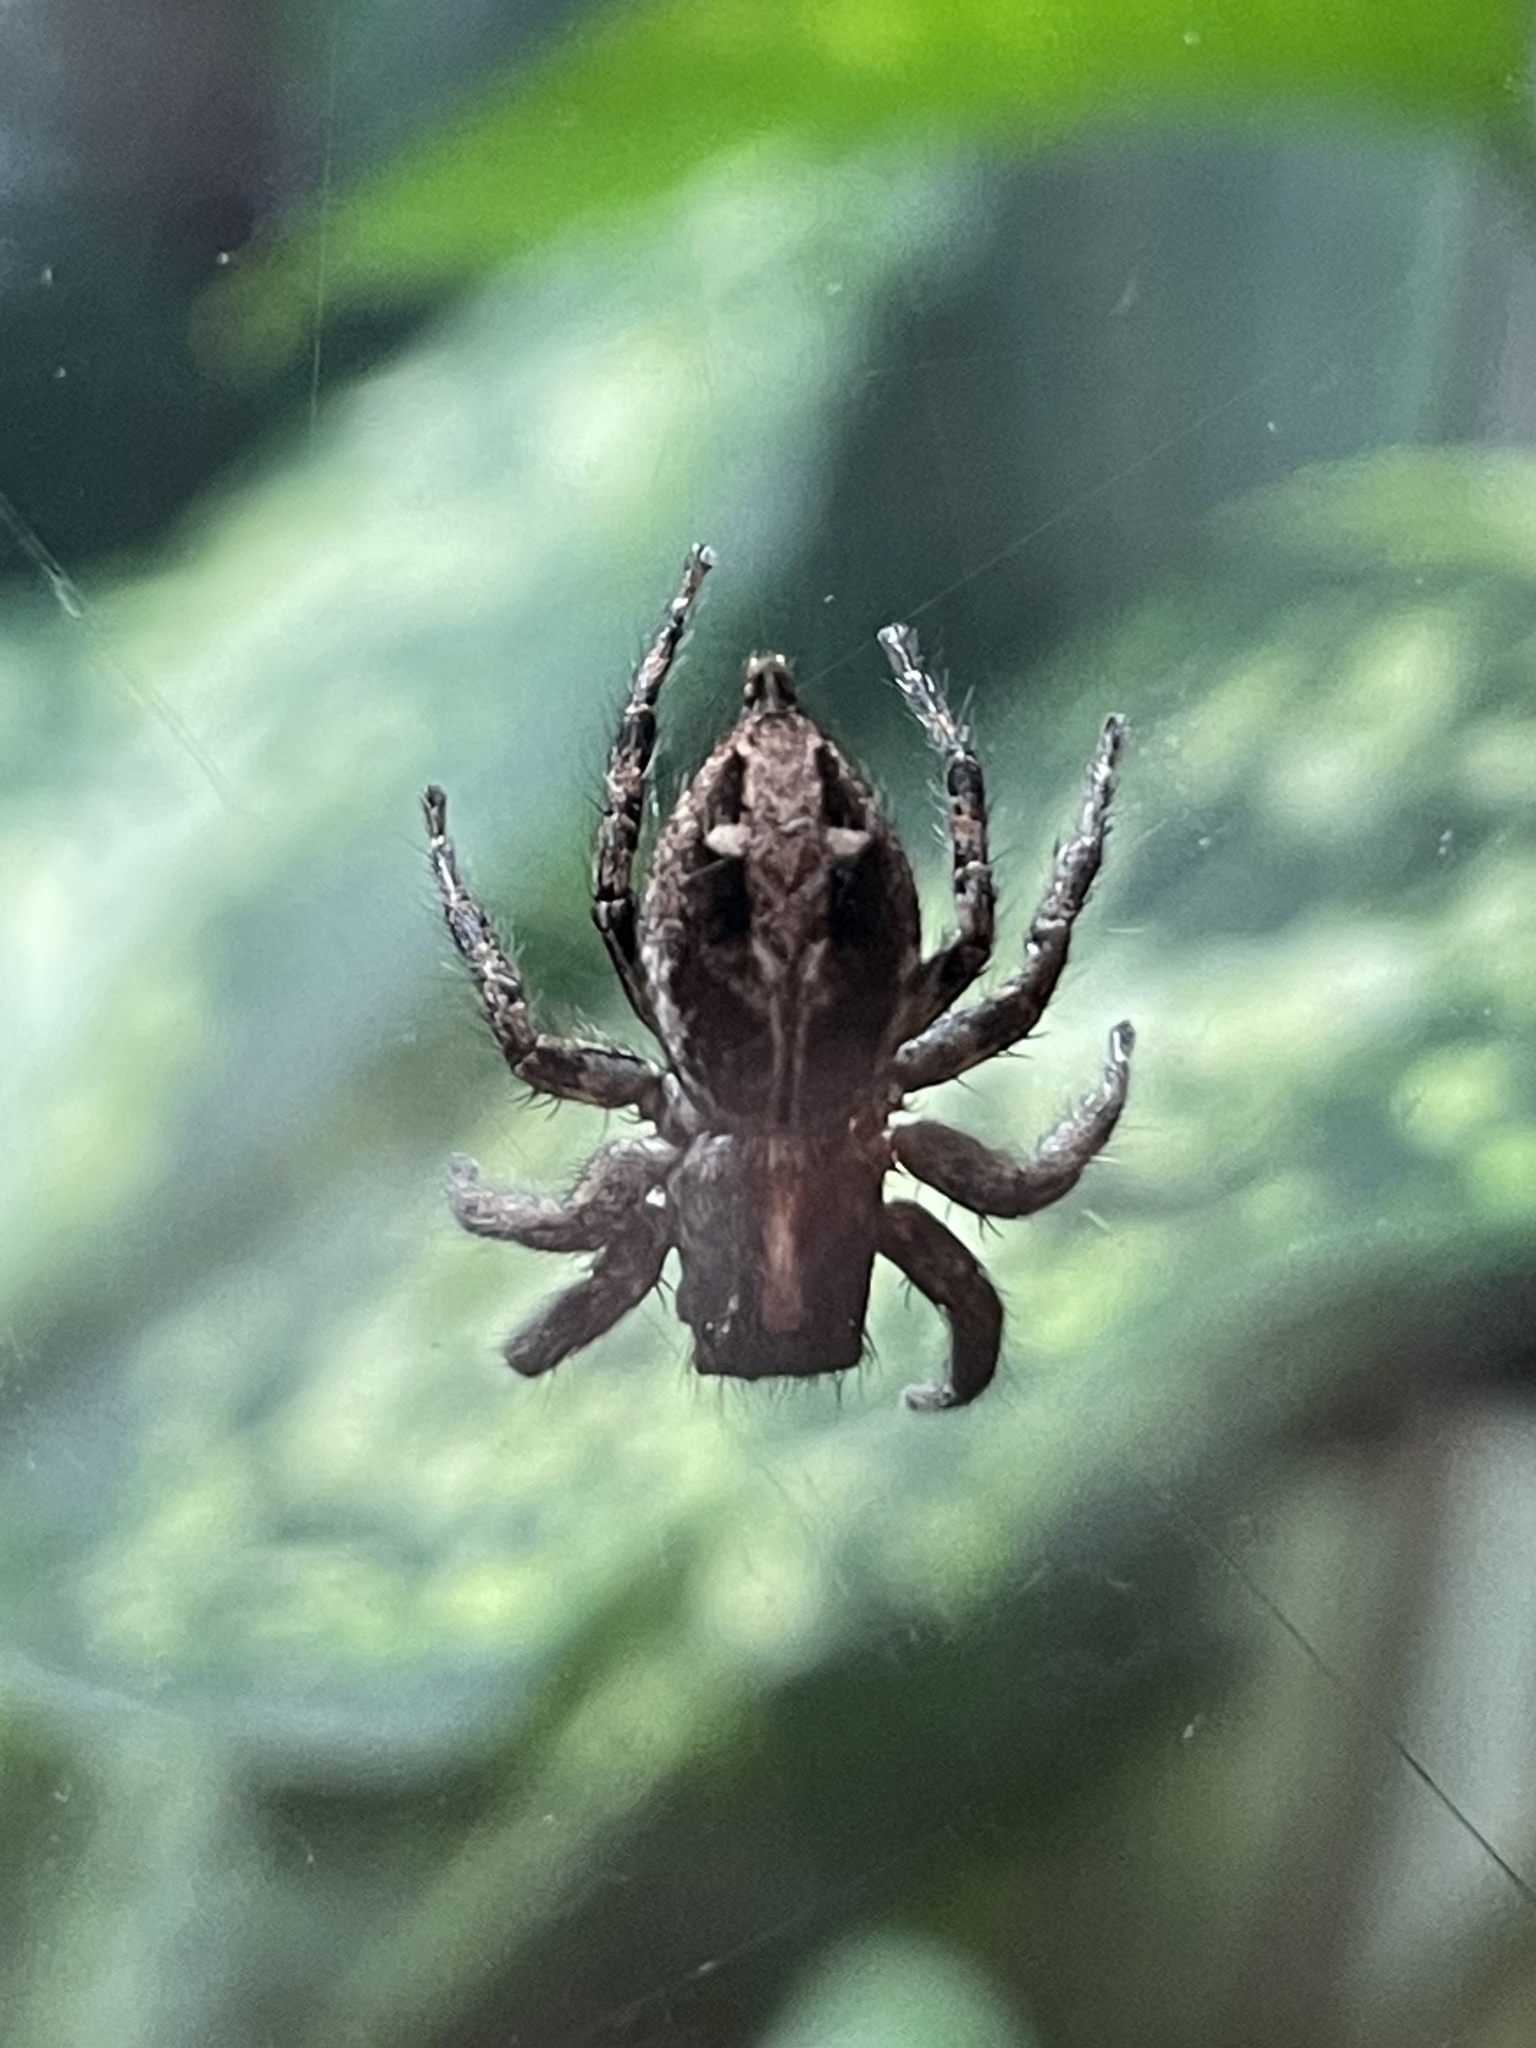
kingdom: Animalia
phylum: Arthropoda
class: Arachnida
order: Araneae
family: Salticidae
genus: Plexippus
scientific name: Plexippus paykulli
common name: Pantropical jumper
